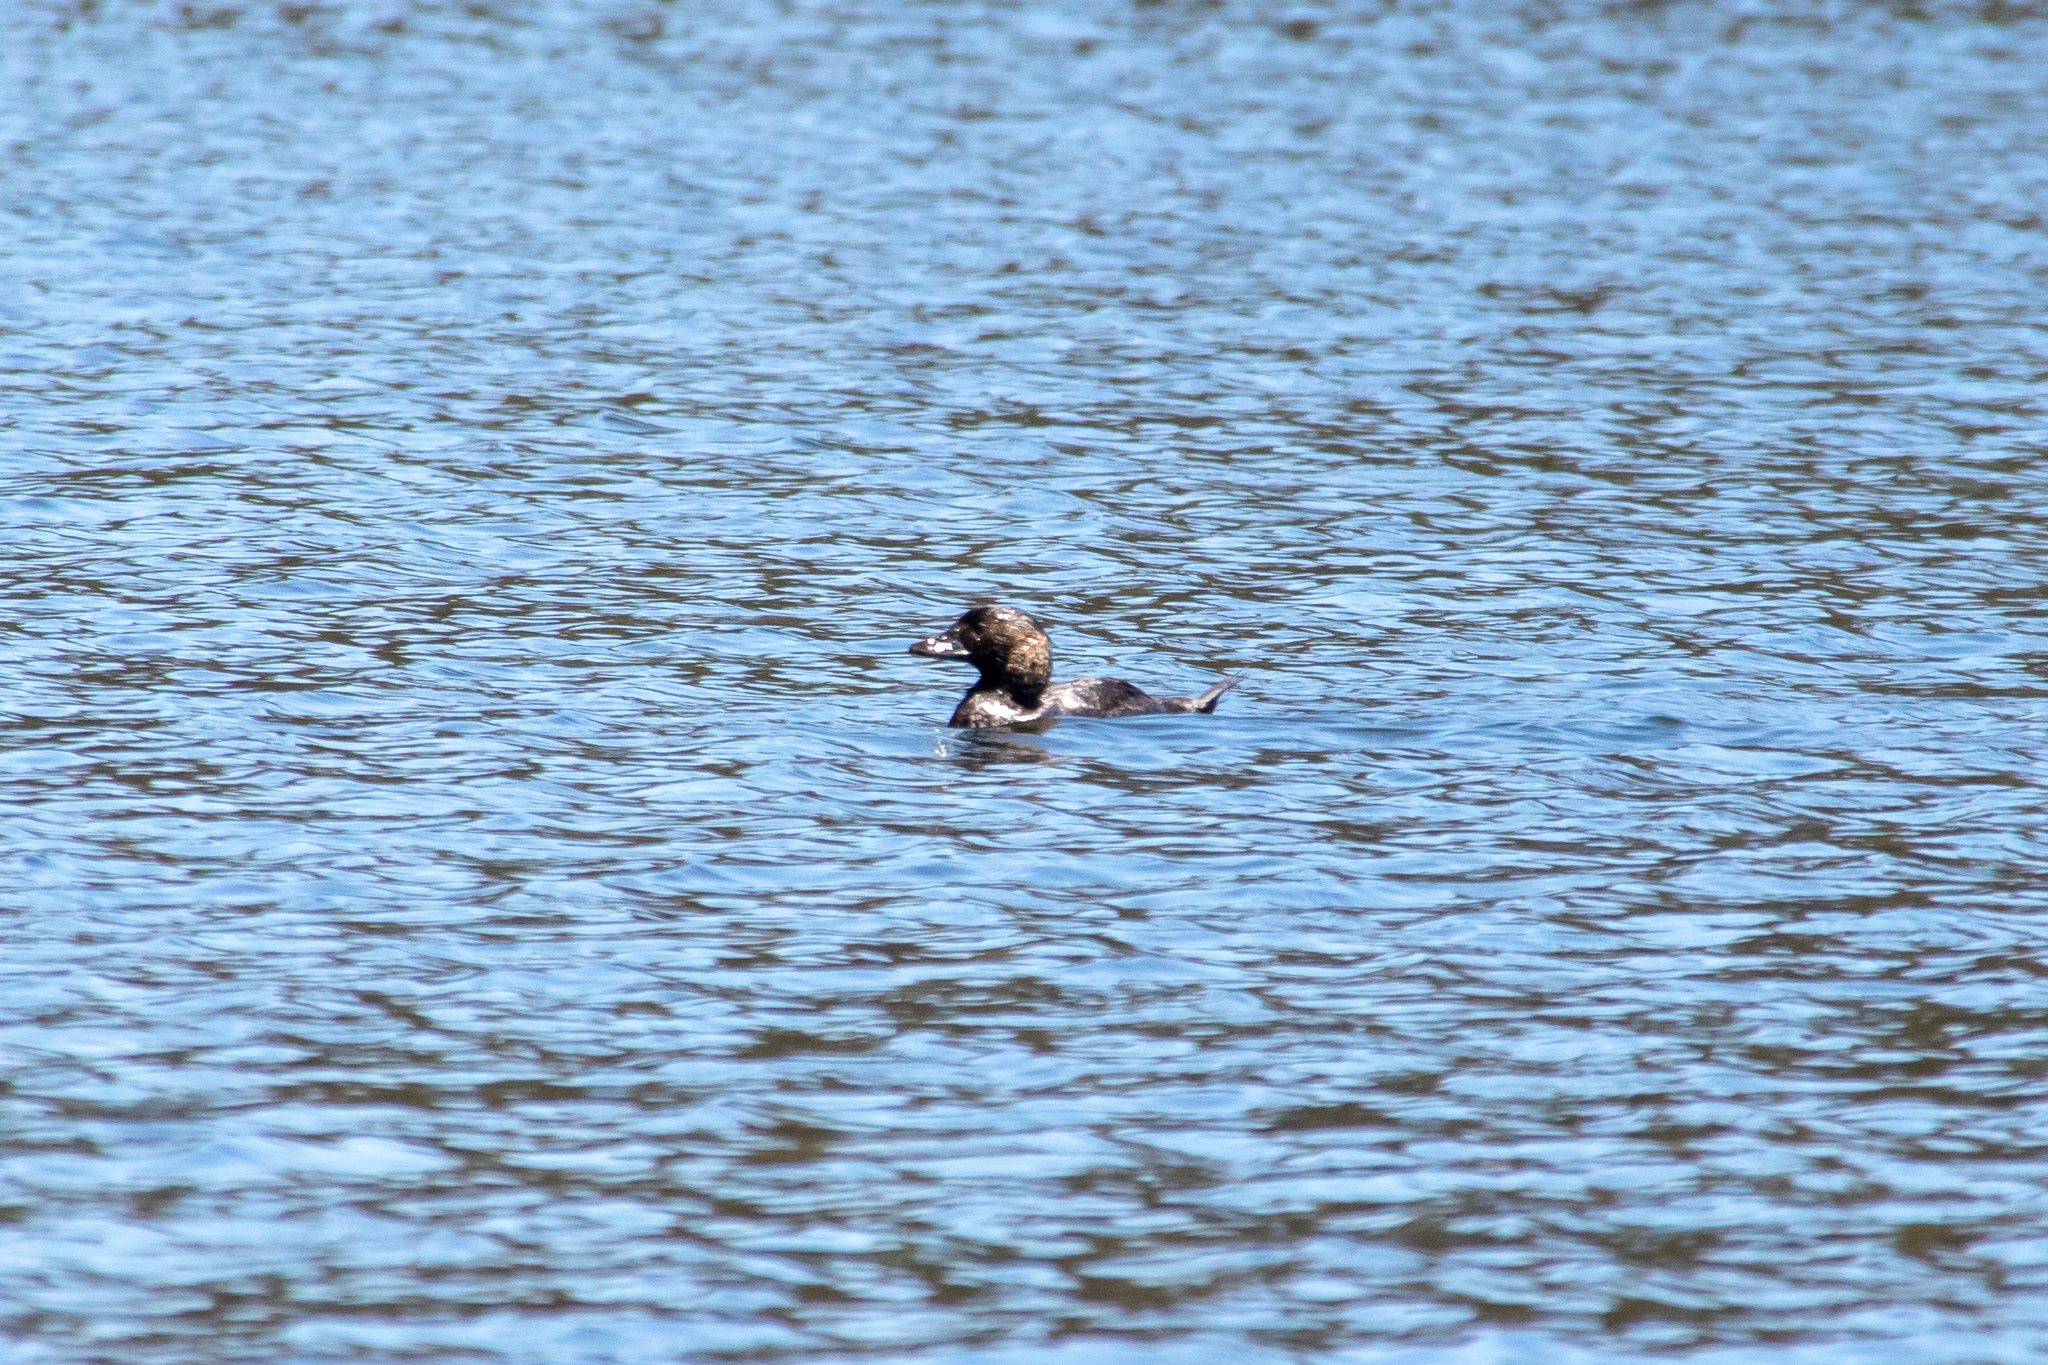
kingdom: Animalia
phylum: Chordata
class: Aves
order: Anseriformes
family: Anatidae
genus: Biziura
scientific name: Biziura lobata
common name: Musk duck
